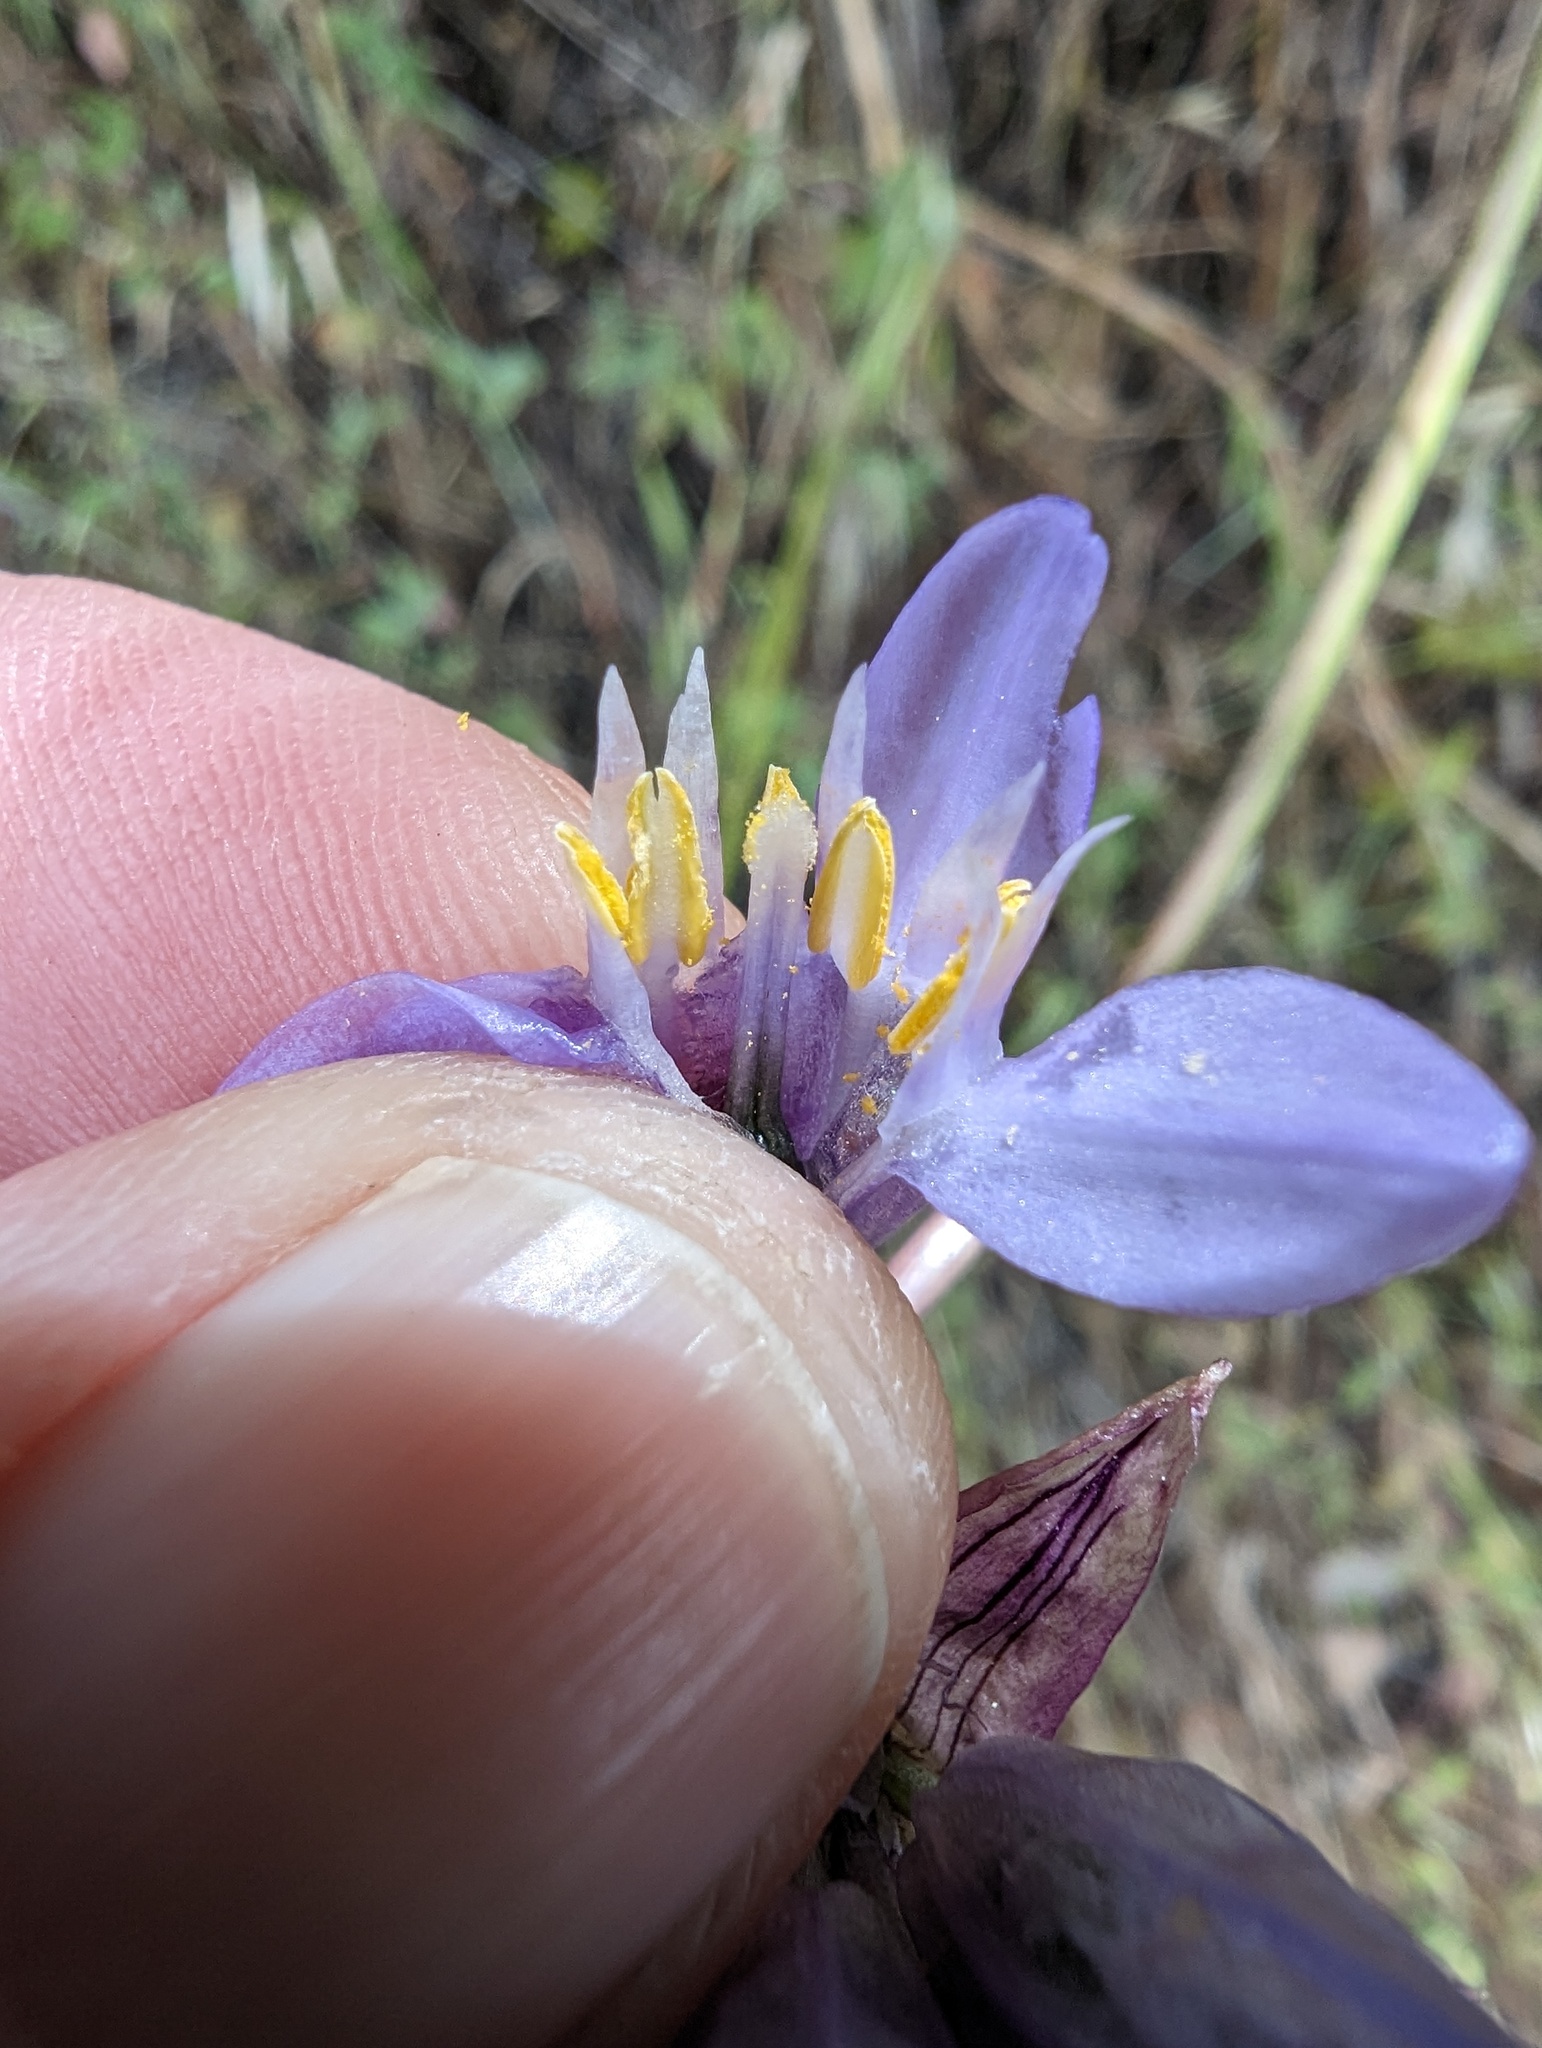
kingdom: Plantae
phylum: Tracheophyta
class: Liliopsida
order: Asparagales
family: Asparagaceae
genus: Dipterostemon
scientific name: Dipterostemon capitatus
